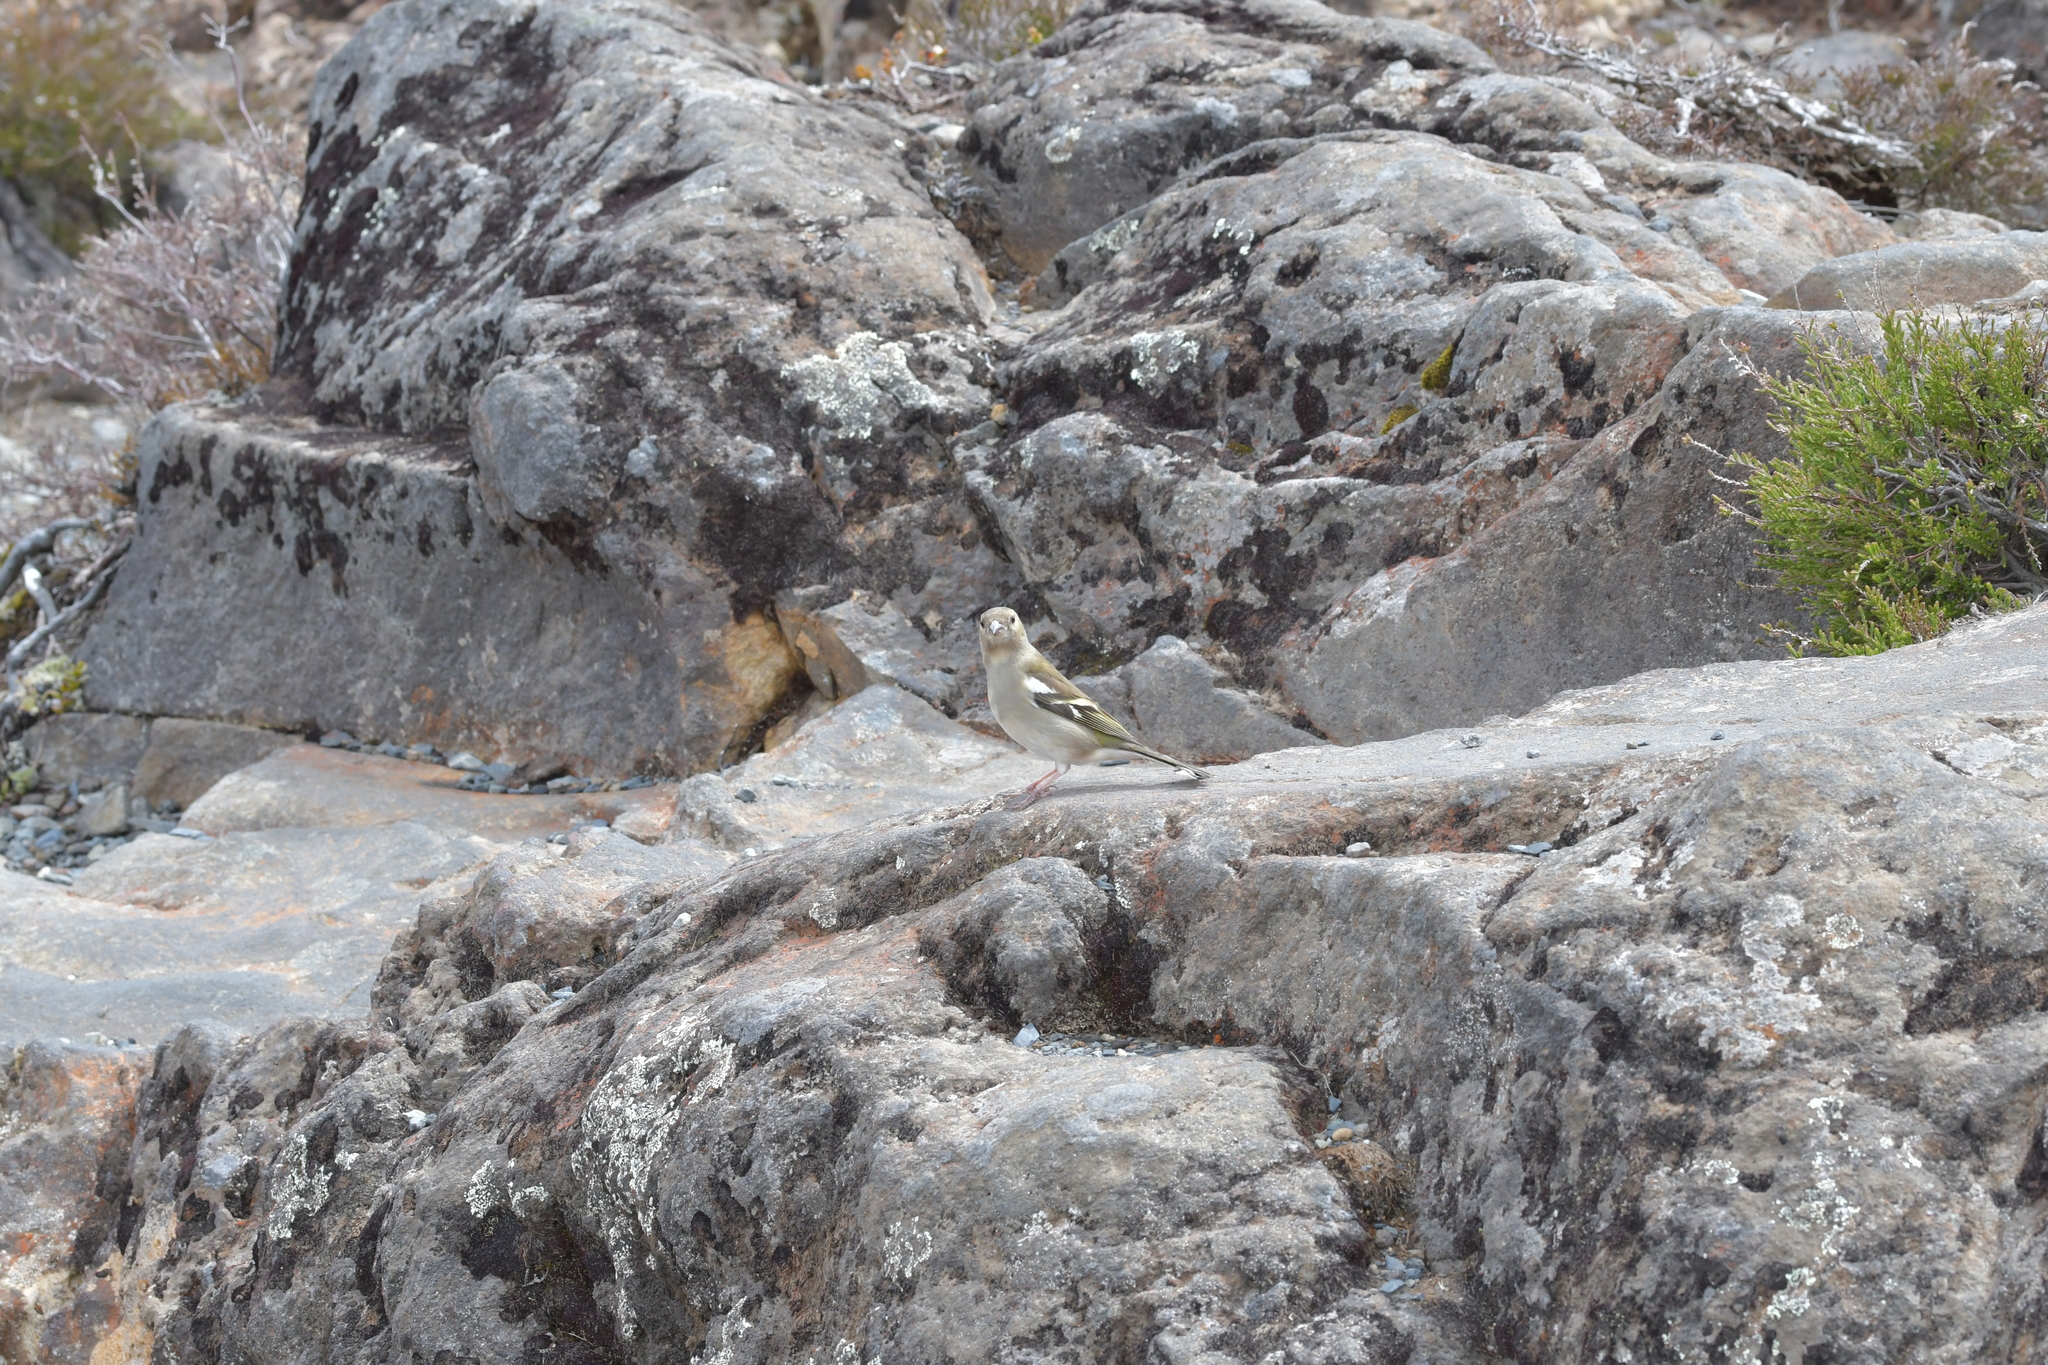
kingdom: Animalia
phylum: Chordata
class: Aves
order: Passeriformes
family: Fringillidae
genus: Fringilla
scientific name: Fringilla coelebs
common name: Common chaffinch
